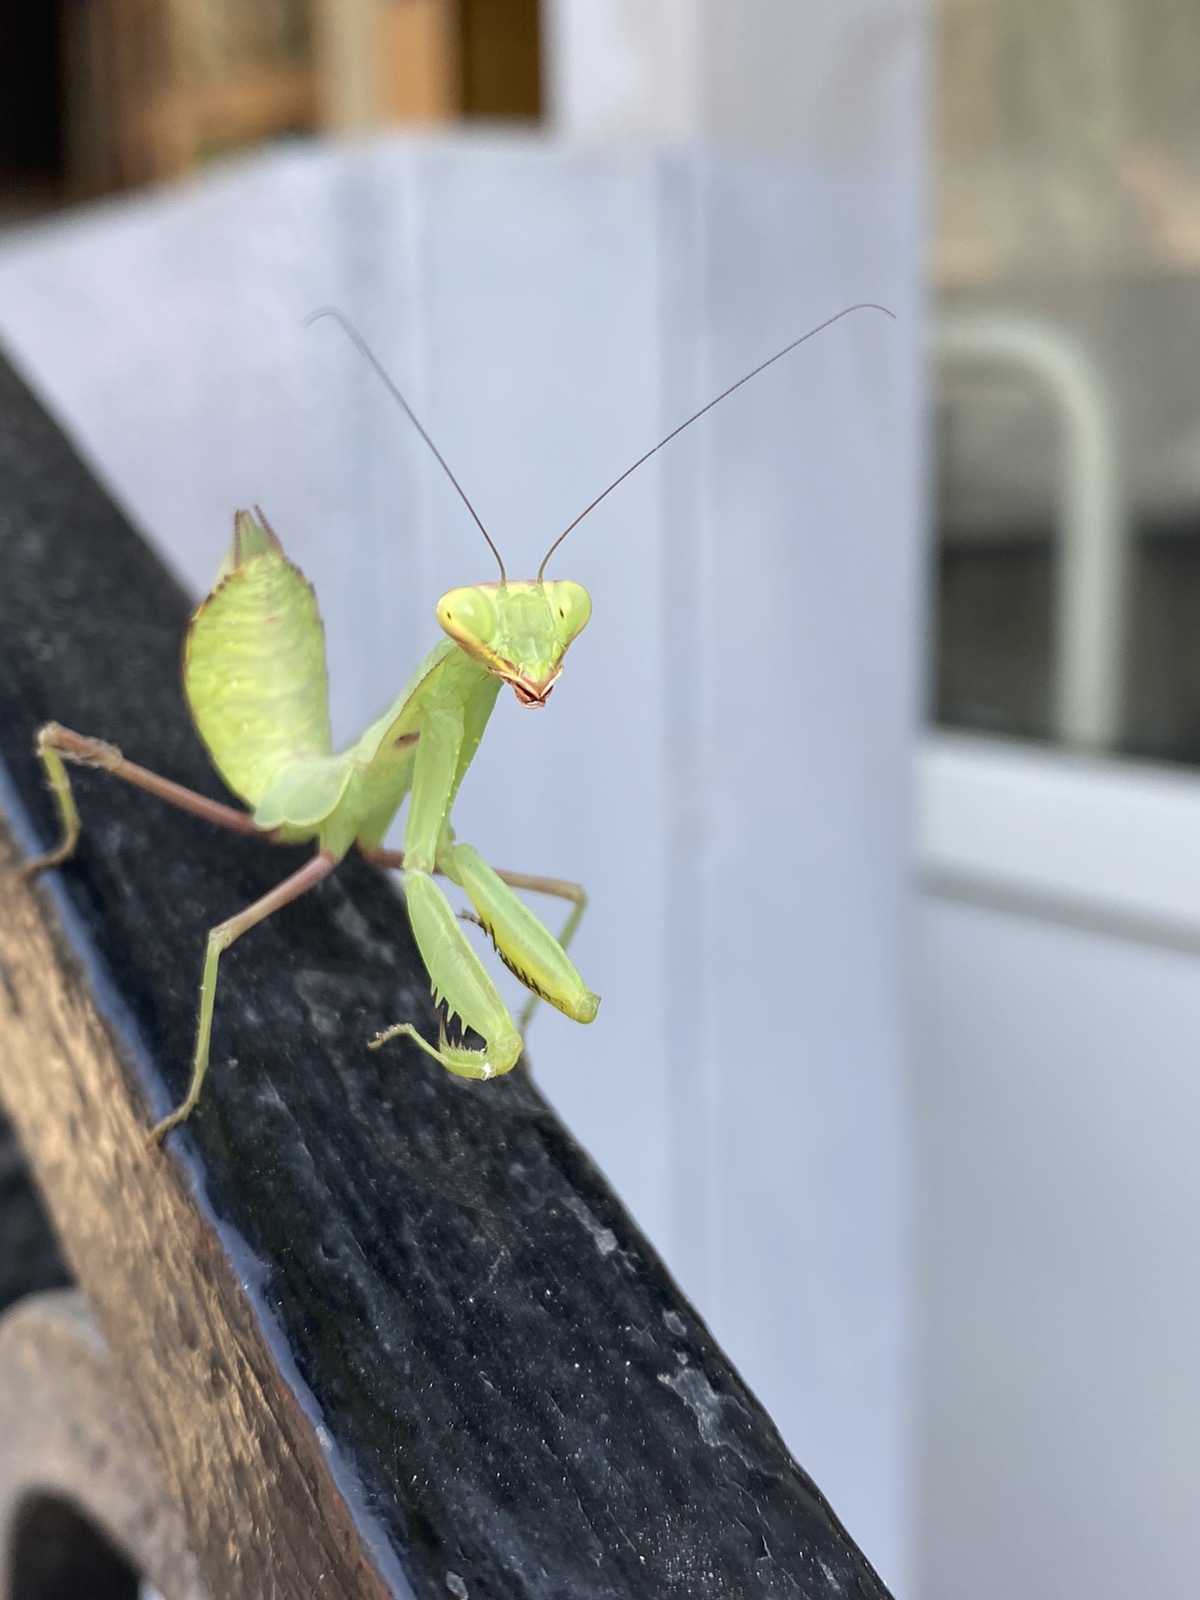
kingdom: Animalia
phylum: Arthropoda
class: Insecta
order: Mantodea
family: Mantidae
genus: Hierodula
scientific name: Hierodula transcaucasica
